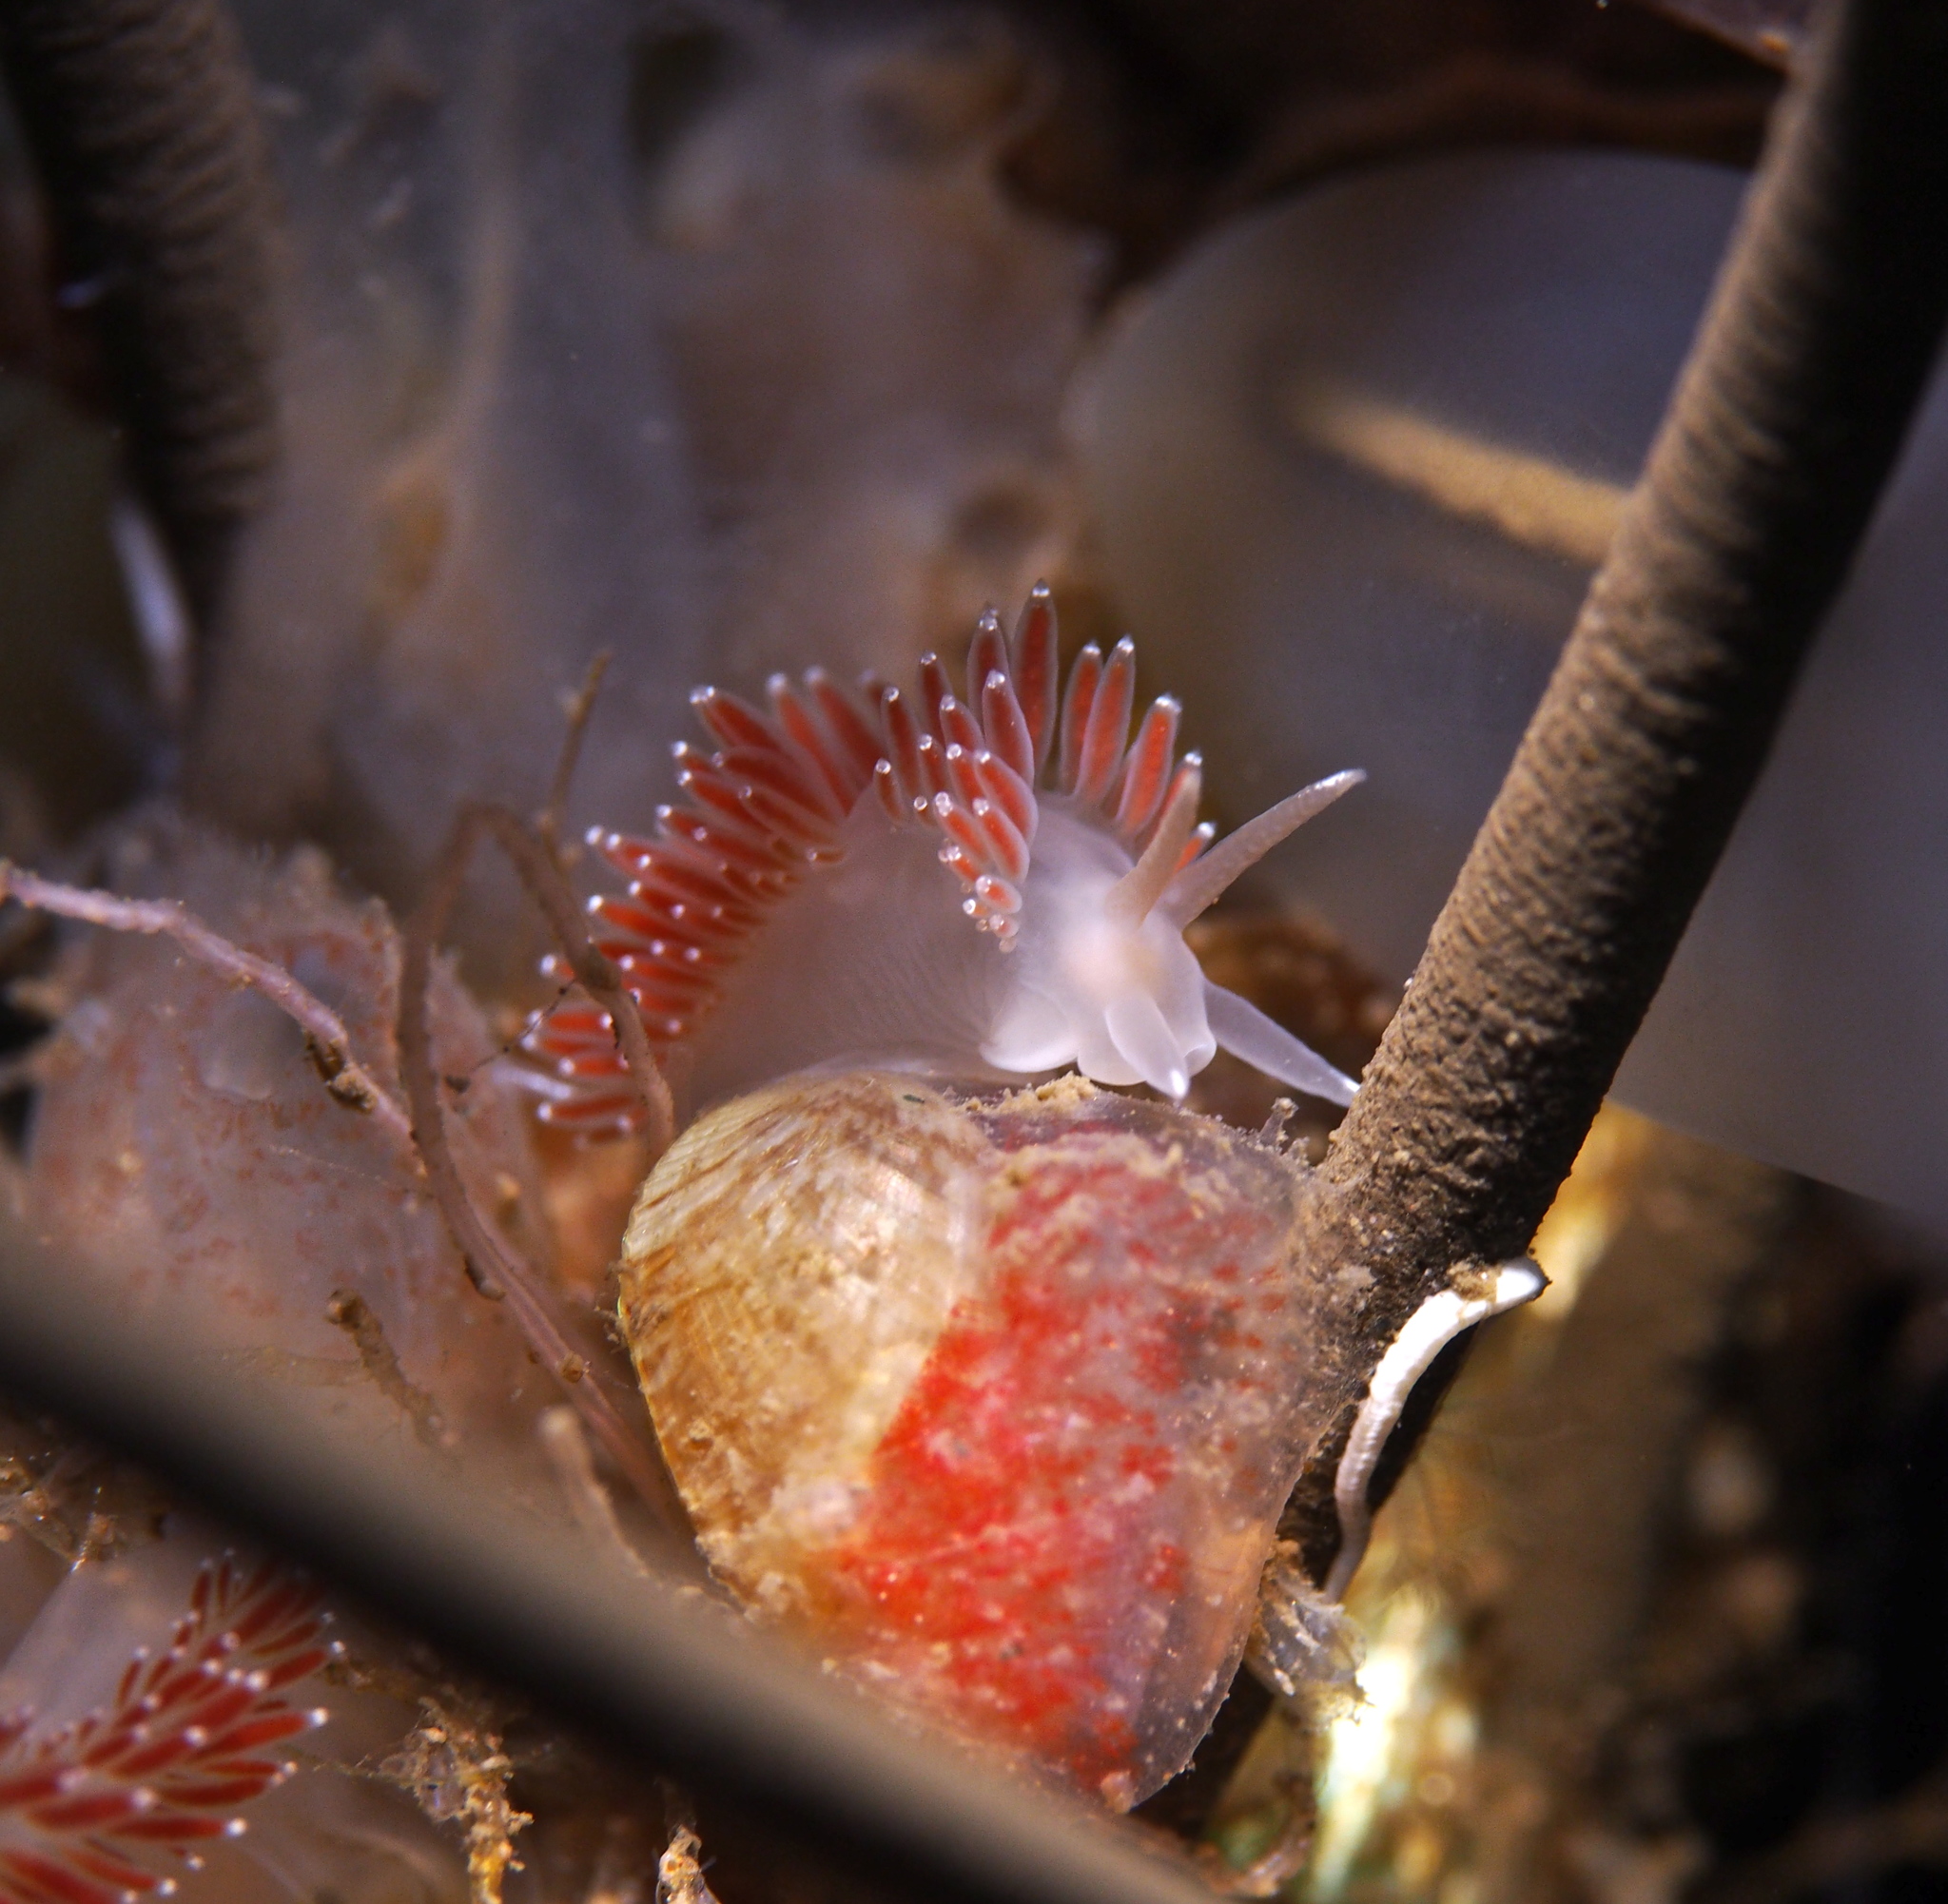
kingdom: Animalia
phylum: Mollusca
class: Gastropoda
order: Nudibranchia
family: Coryphellidae
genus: Coryphella
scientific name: Coryphella verrucosa
